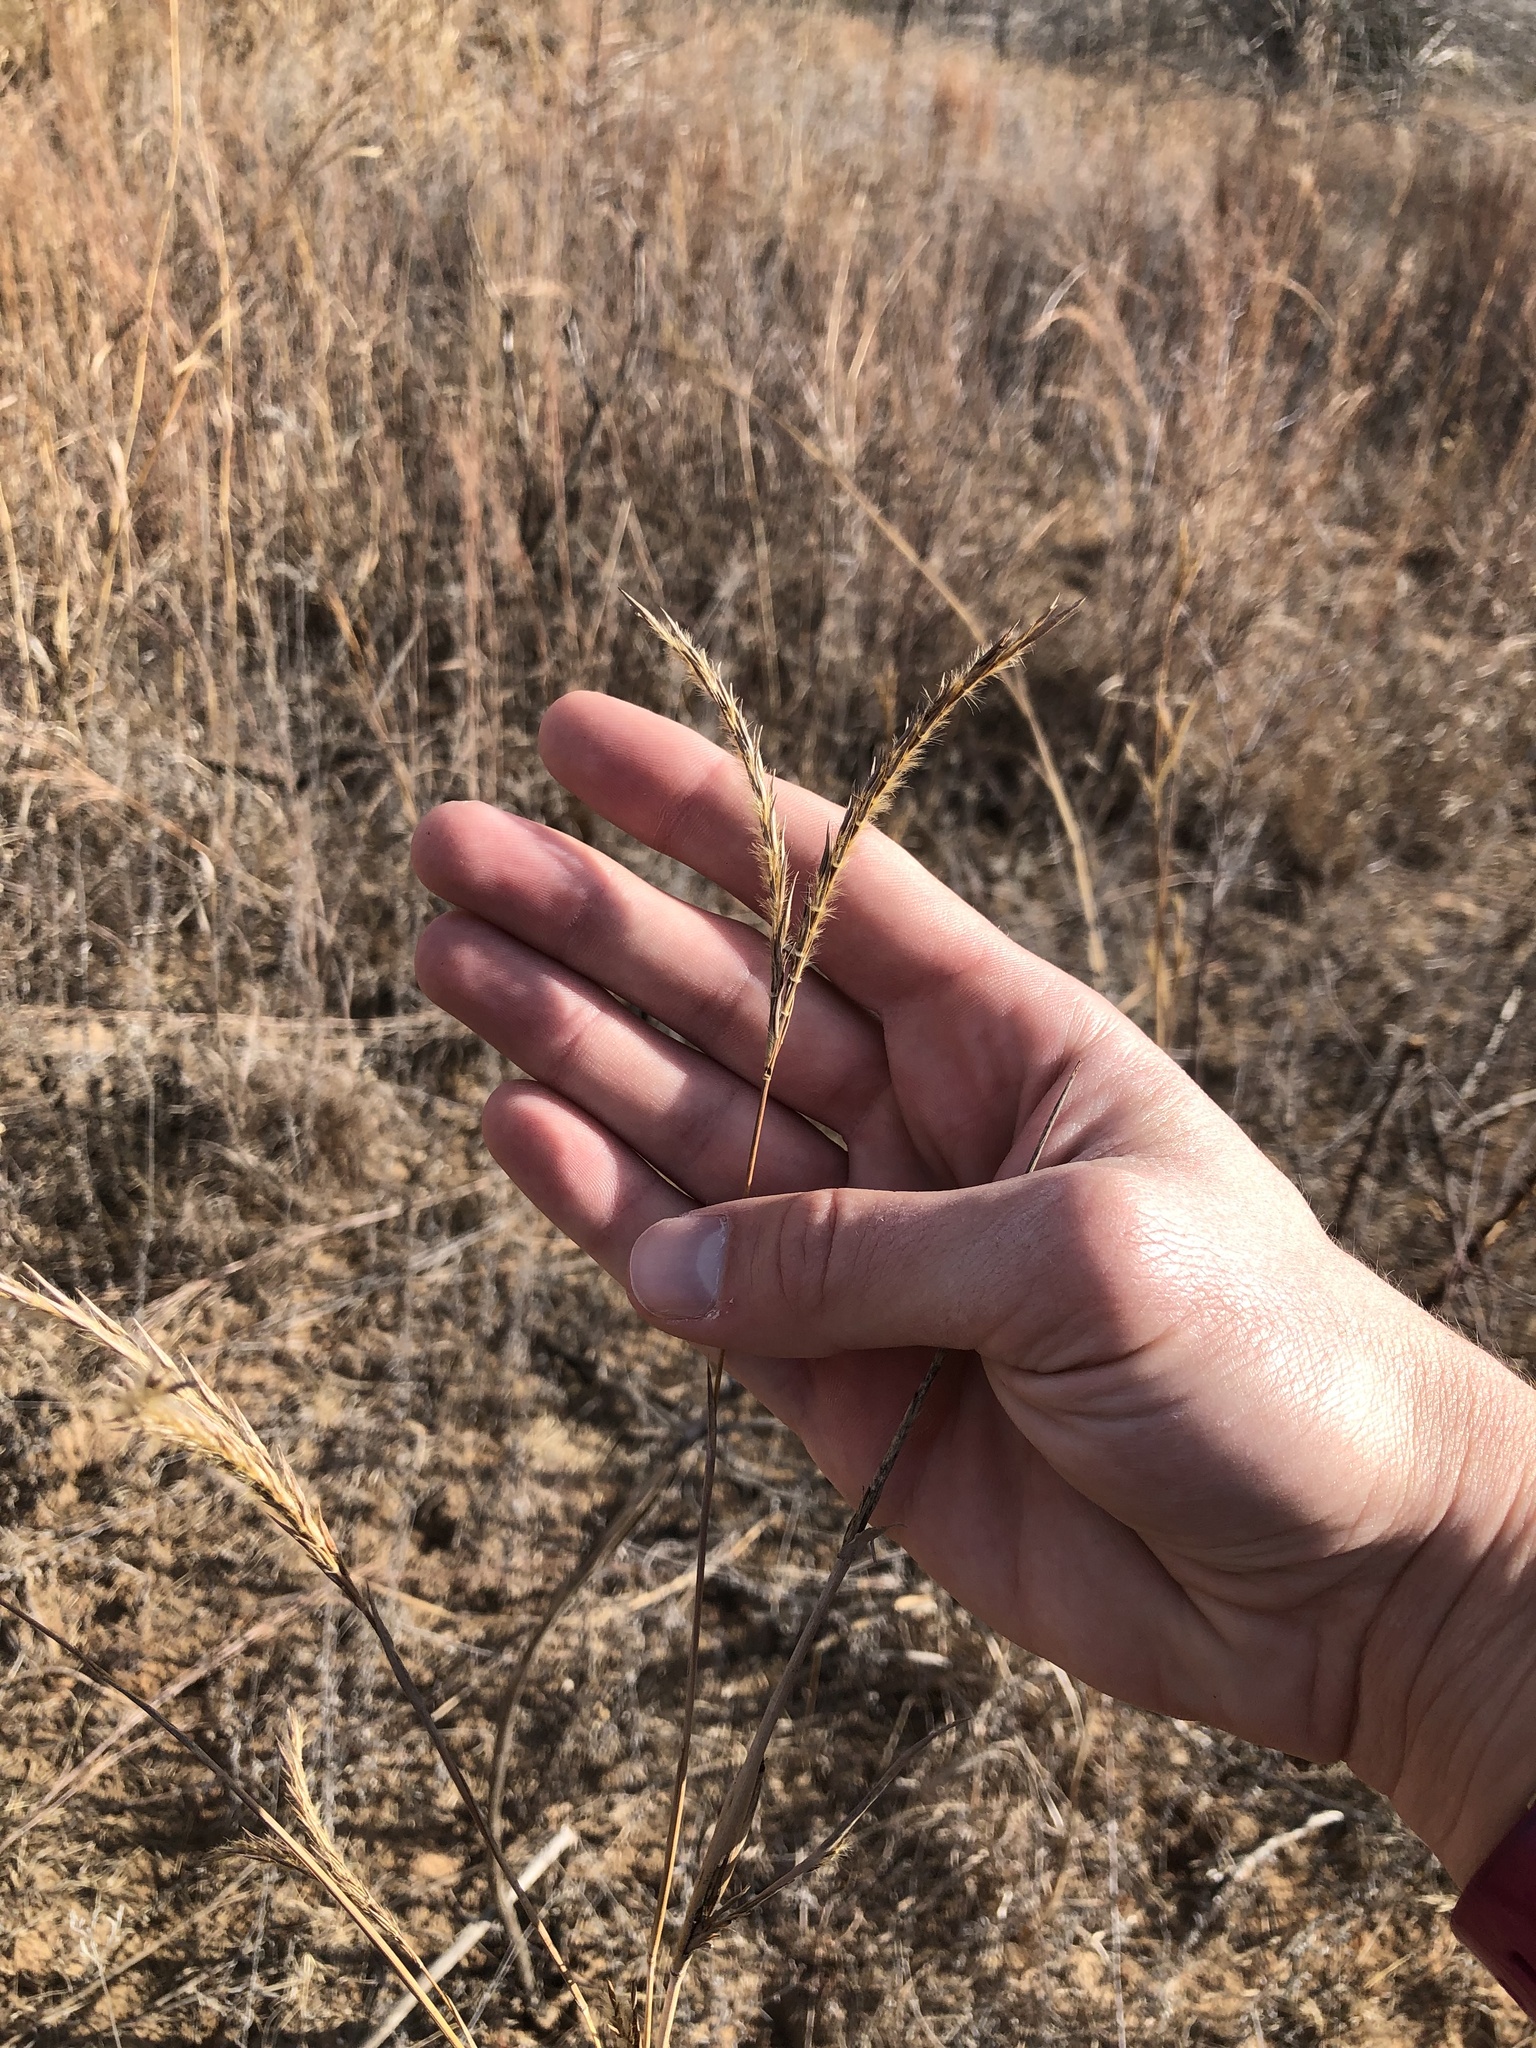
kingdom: Plantae
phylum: Tracheophyta
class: Liliopsida
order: Poales
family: Poaceae
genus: Andropogon
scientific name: Andropogon gerardi
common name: Big bluestem
